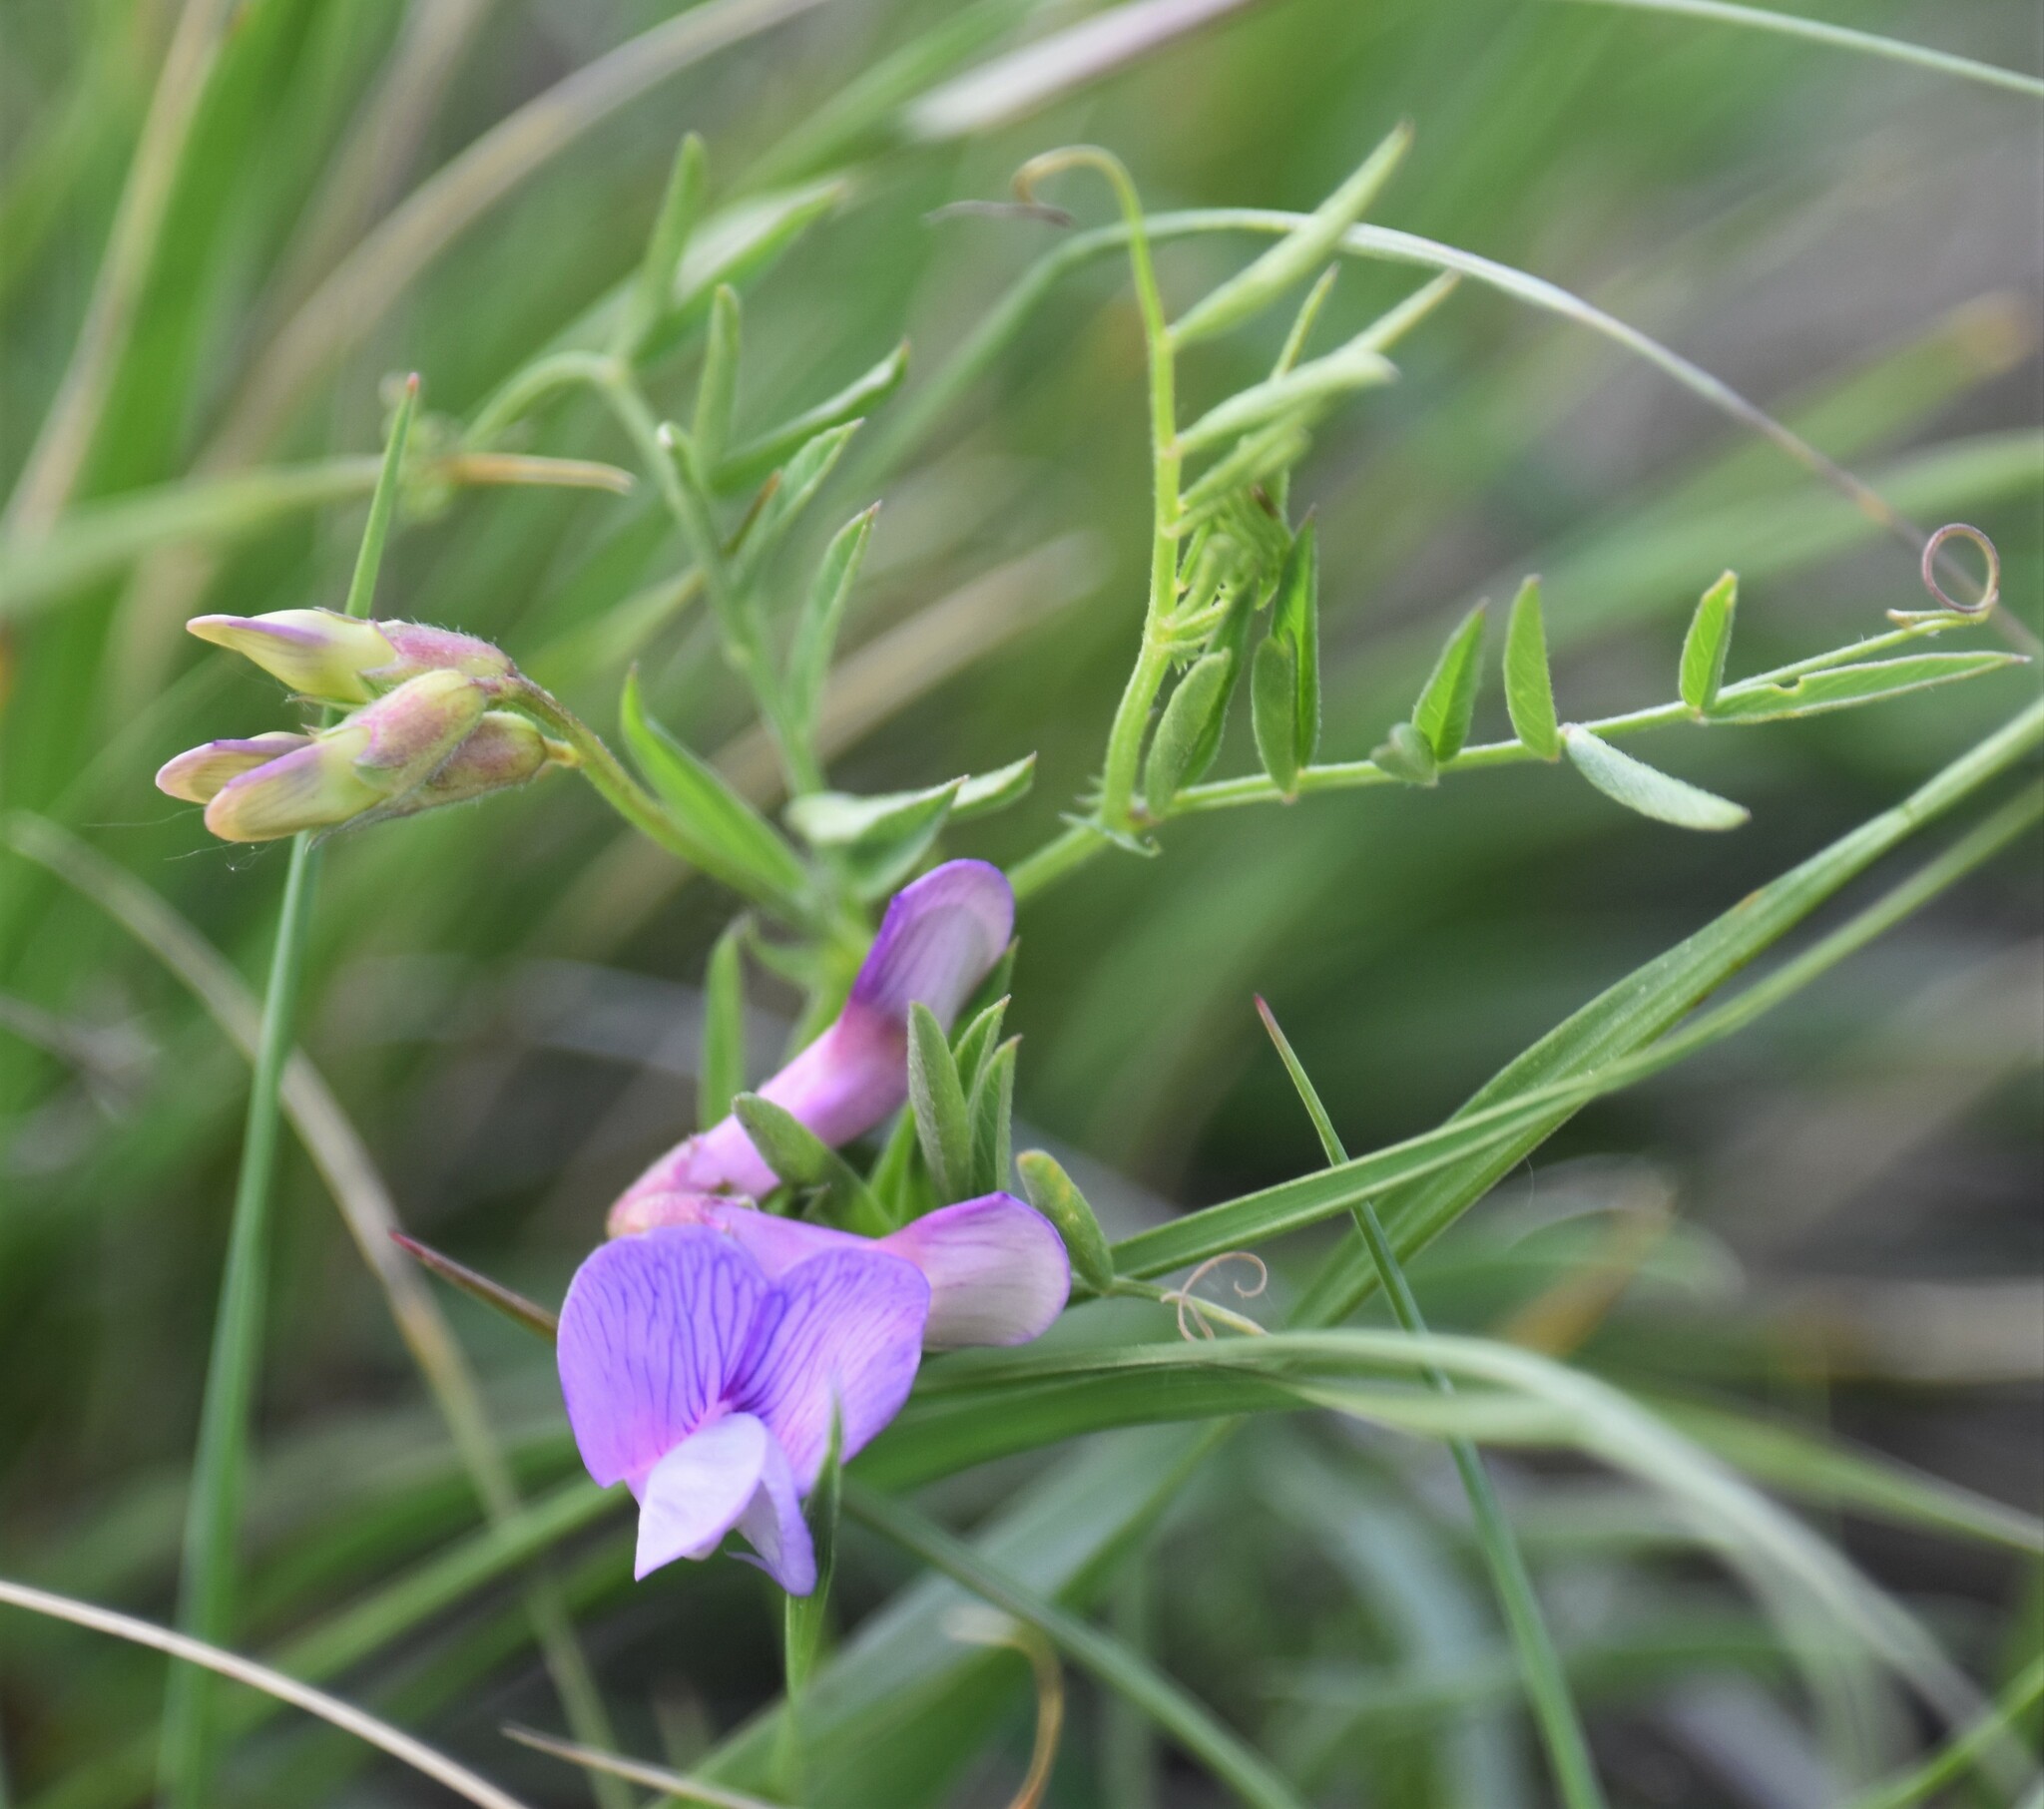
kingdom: Plantae
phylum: Tracheophyta
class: Magnoliopsida
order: Fabales
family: Fabaceae
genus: Vicia
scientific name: Vicia americana
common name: American vetch
